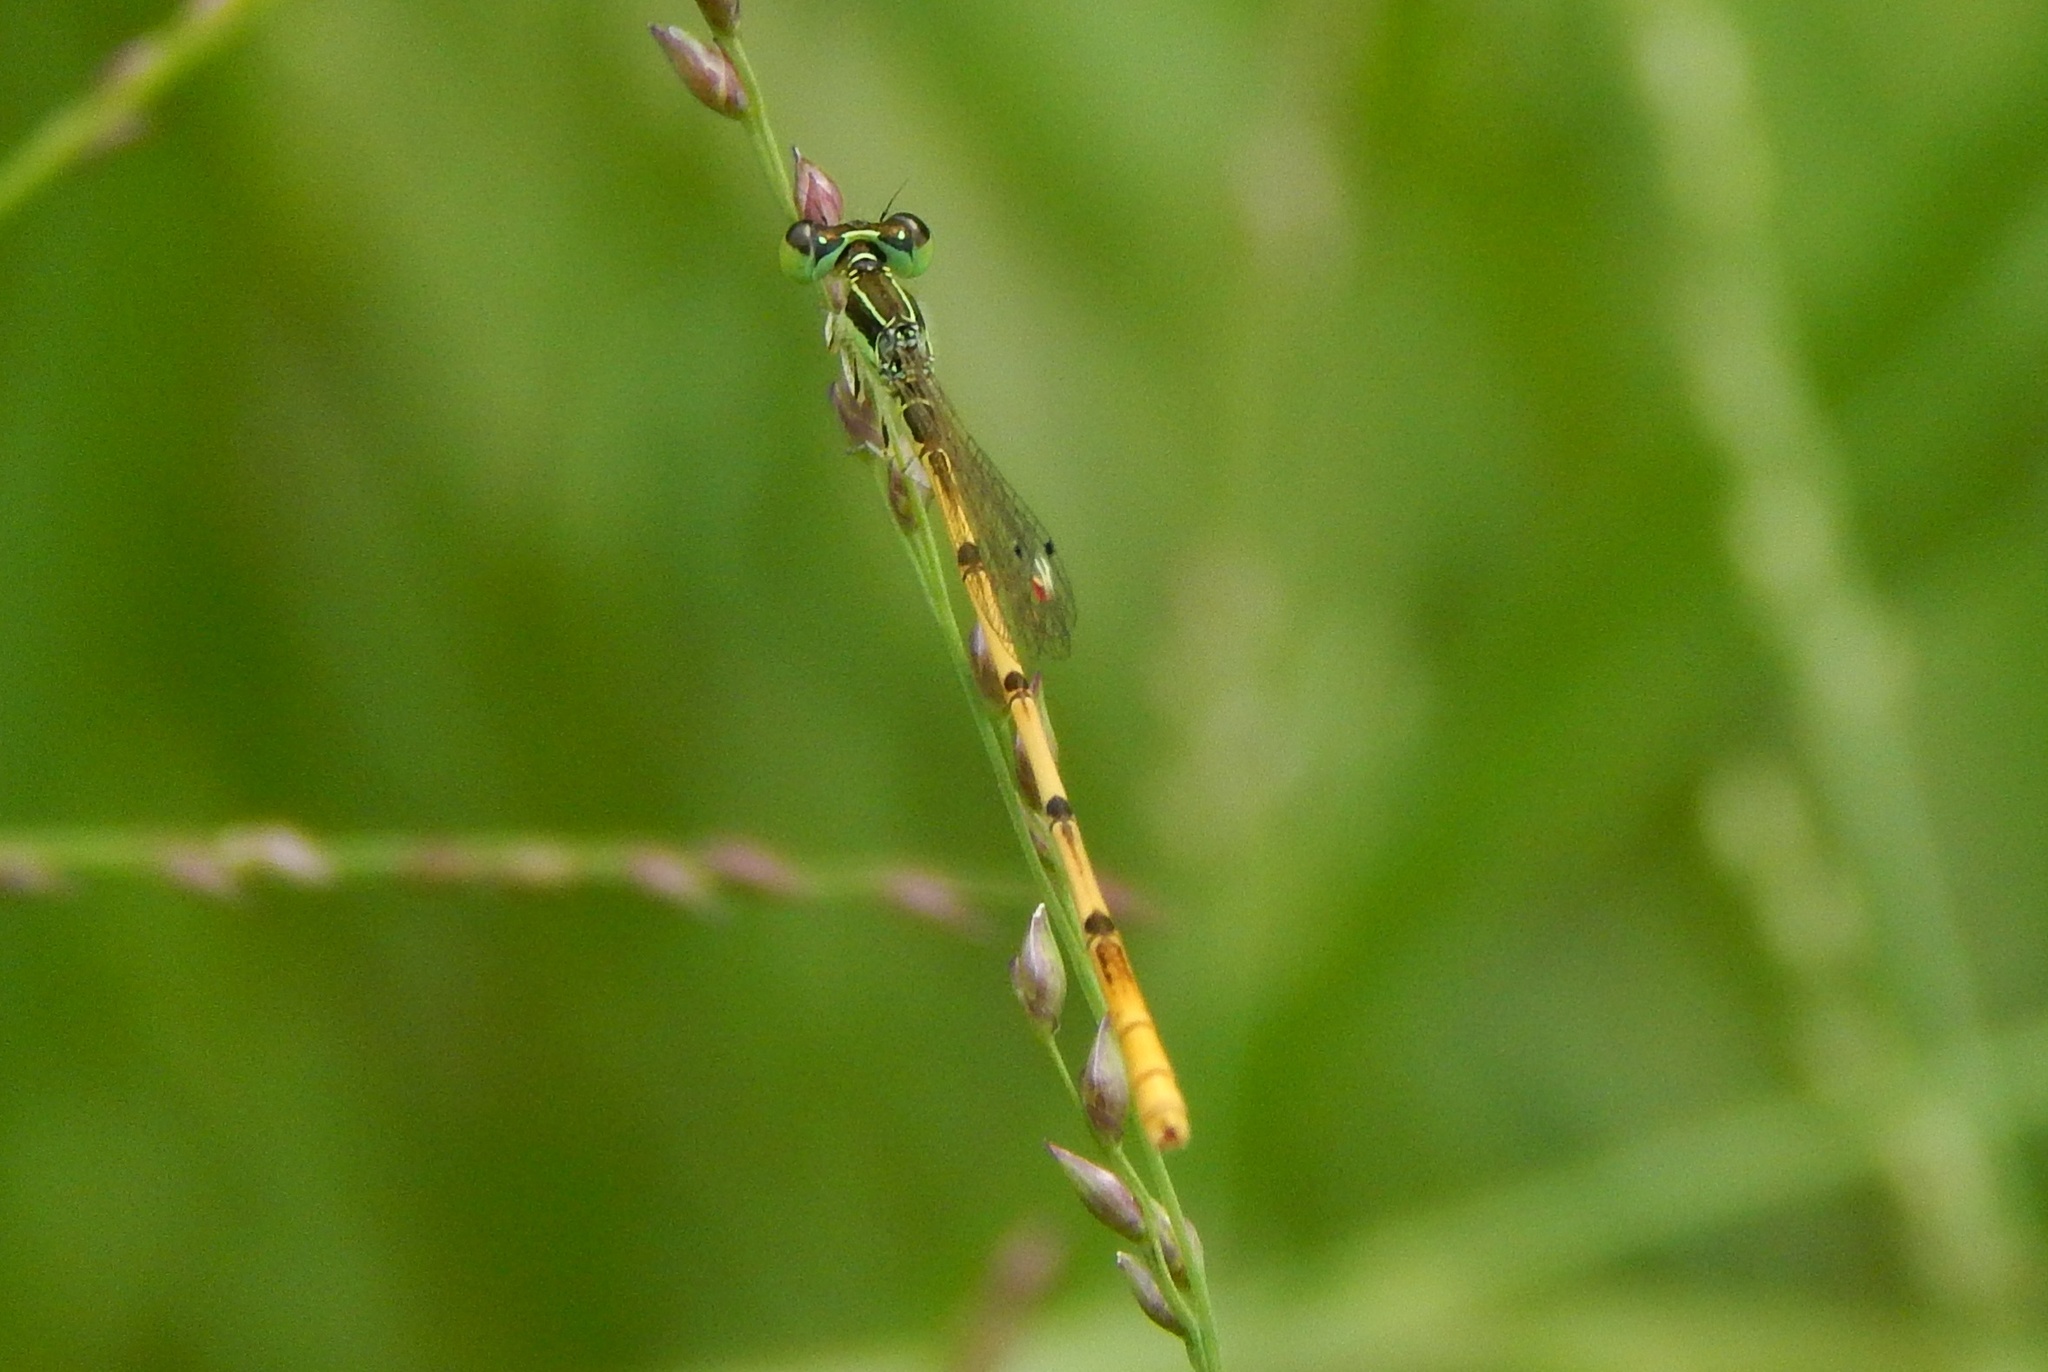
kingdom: Animalia
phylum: Arthropoda
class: Insecta
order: Odonata
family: Coenagrionidae
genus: Ischnura
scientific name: Ischnura hastata
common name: Citrine forktail
